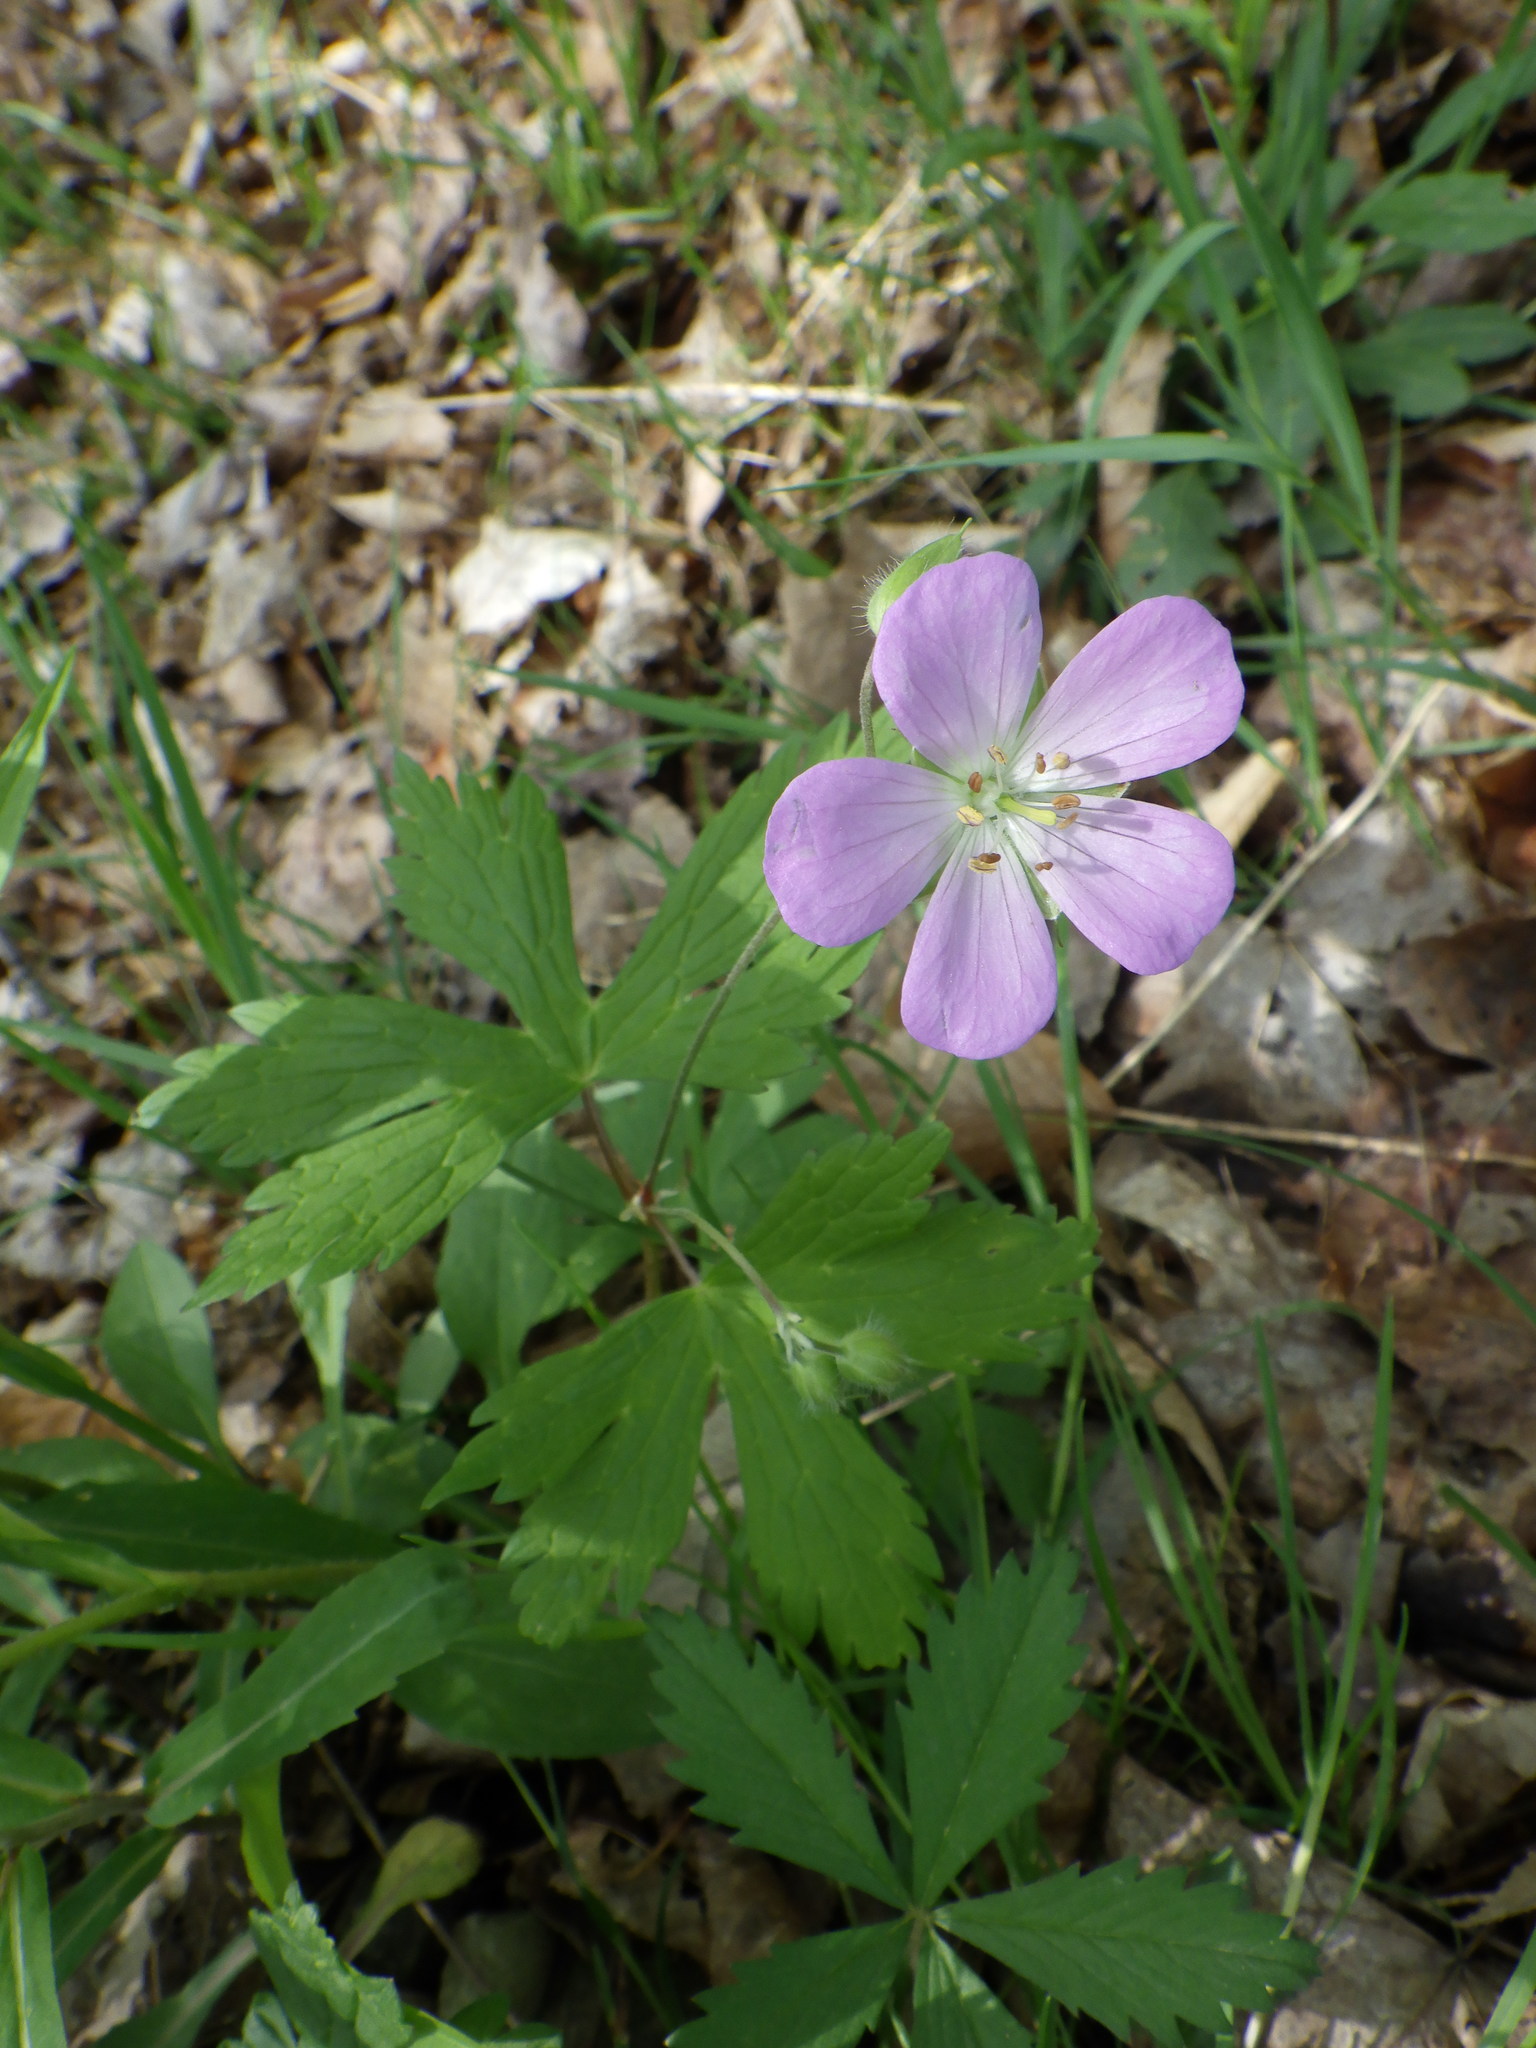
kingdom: Plantae
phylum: Tracheophyta
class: Magnoliopsida
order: Geraniales
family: Geraniaceae
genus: Geranium
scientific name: Geranium maculatum
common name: Spotted geranium
